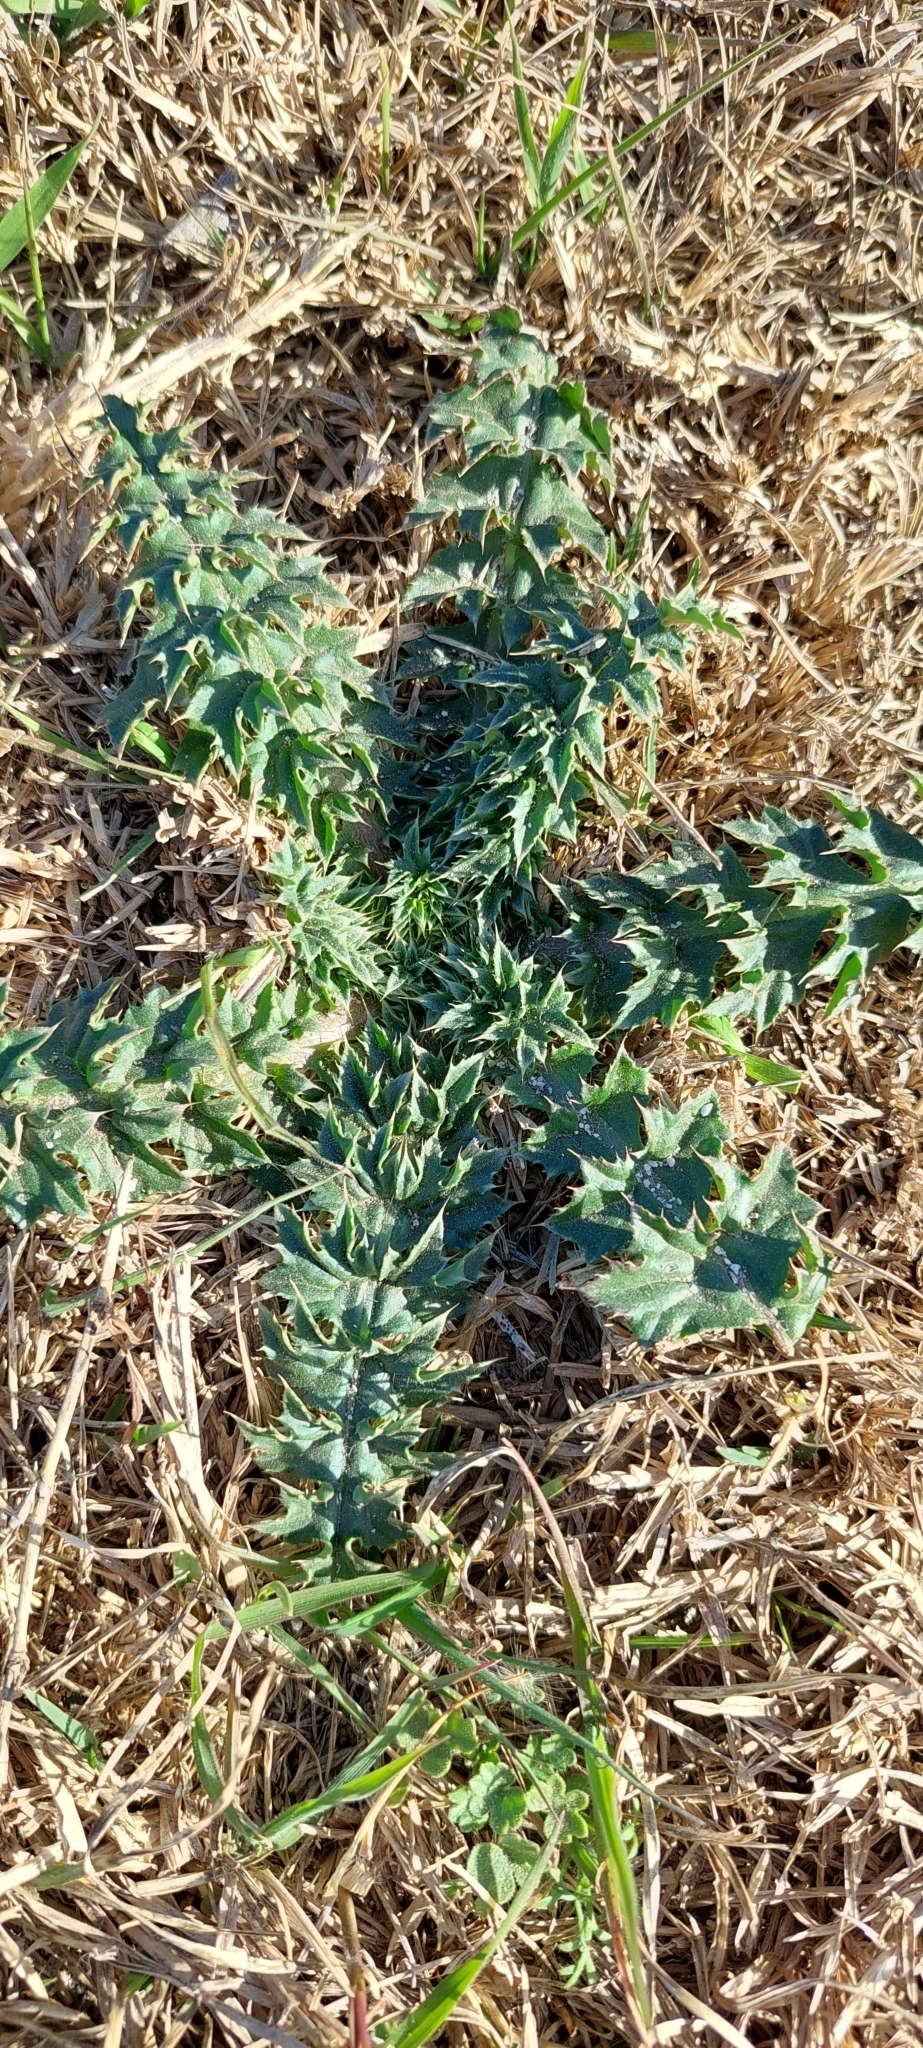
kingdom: Plantae
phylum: Tracheophyta
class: Magnoliopsida
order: Asterales
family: Asteraceae
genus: Carduus
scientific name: Carduus acanthoides
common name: Plumeless thistle
